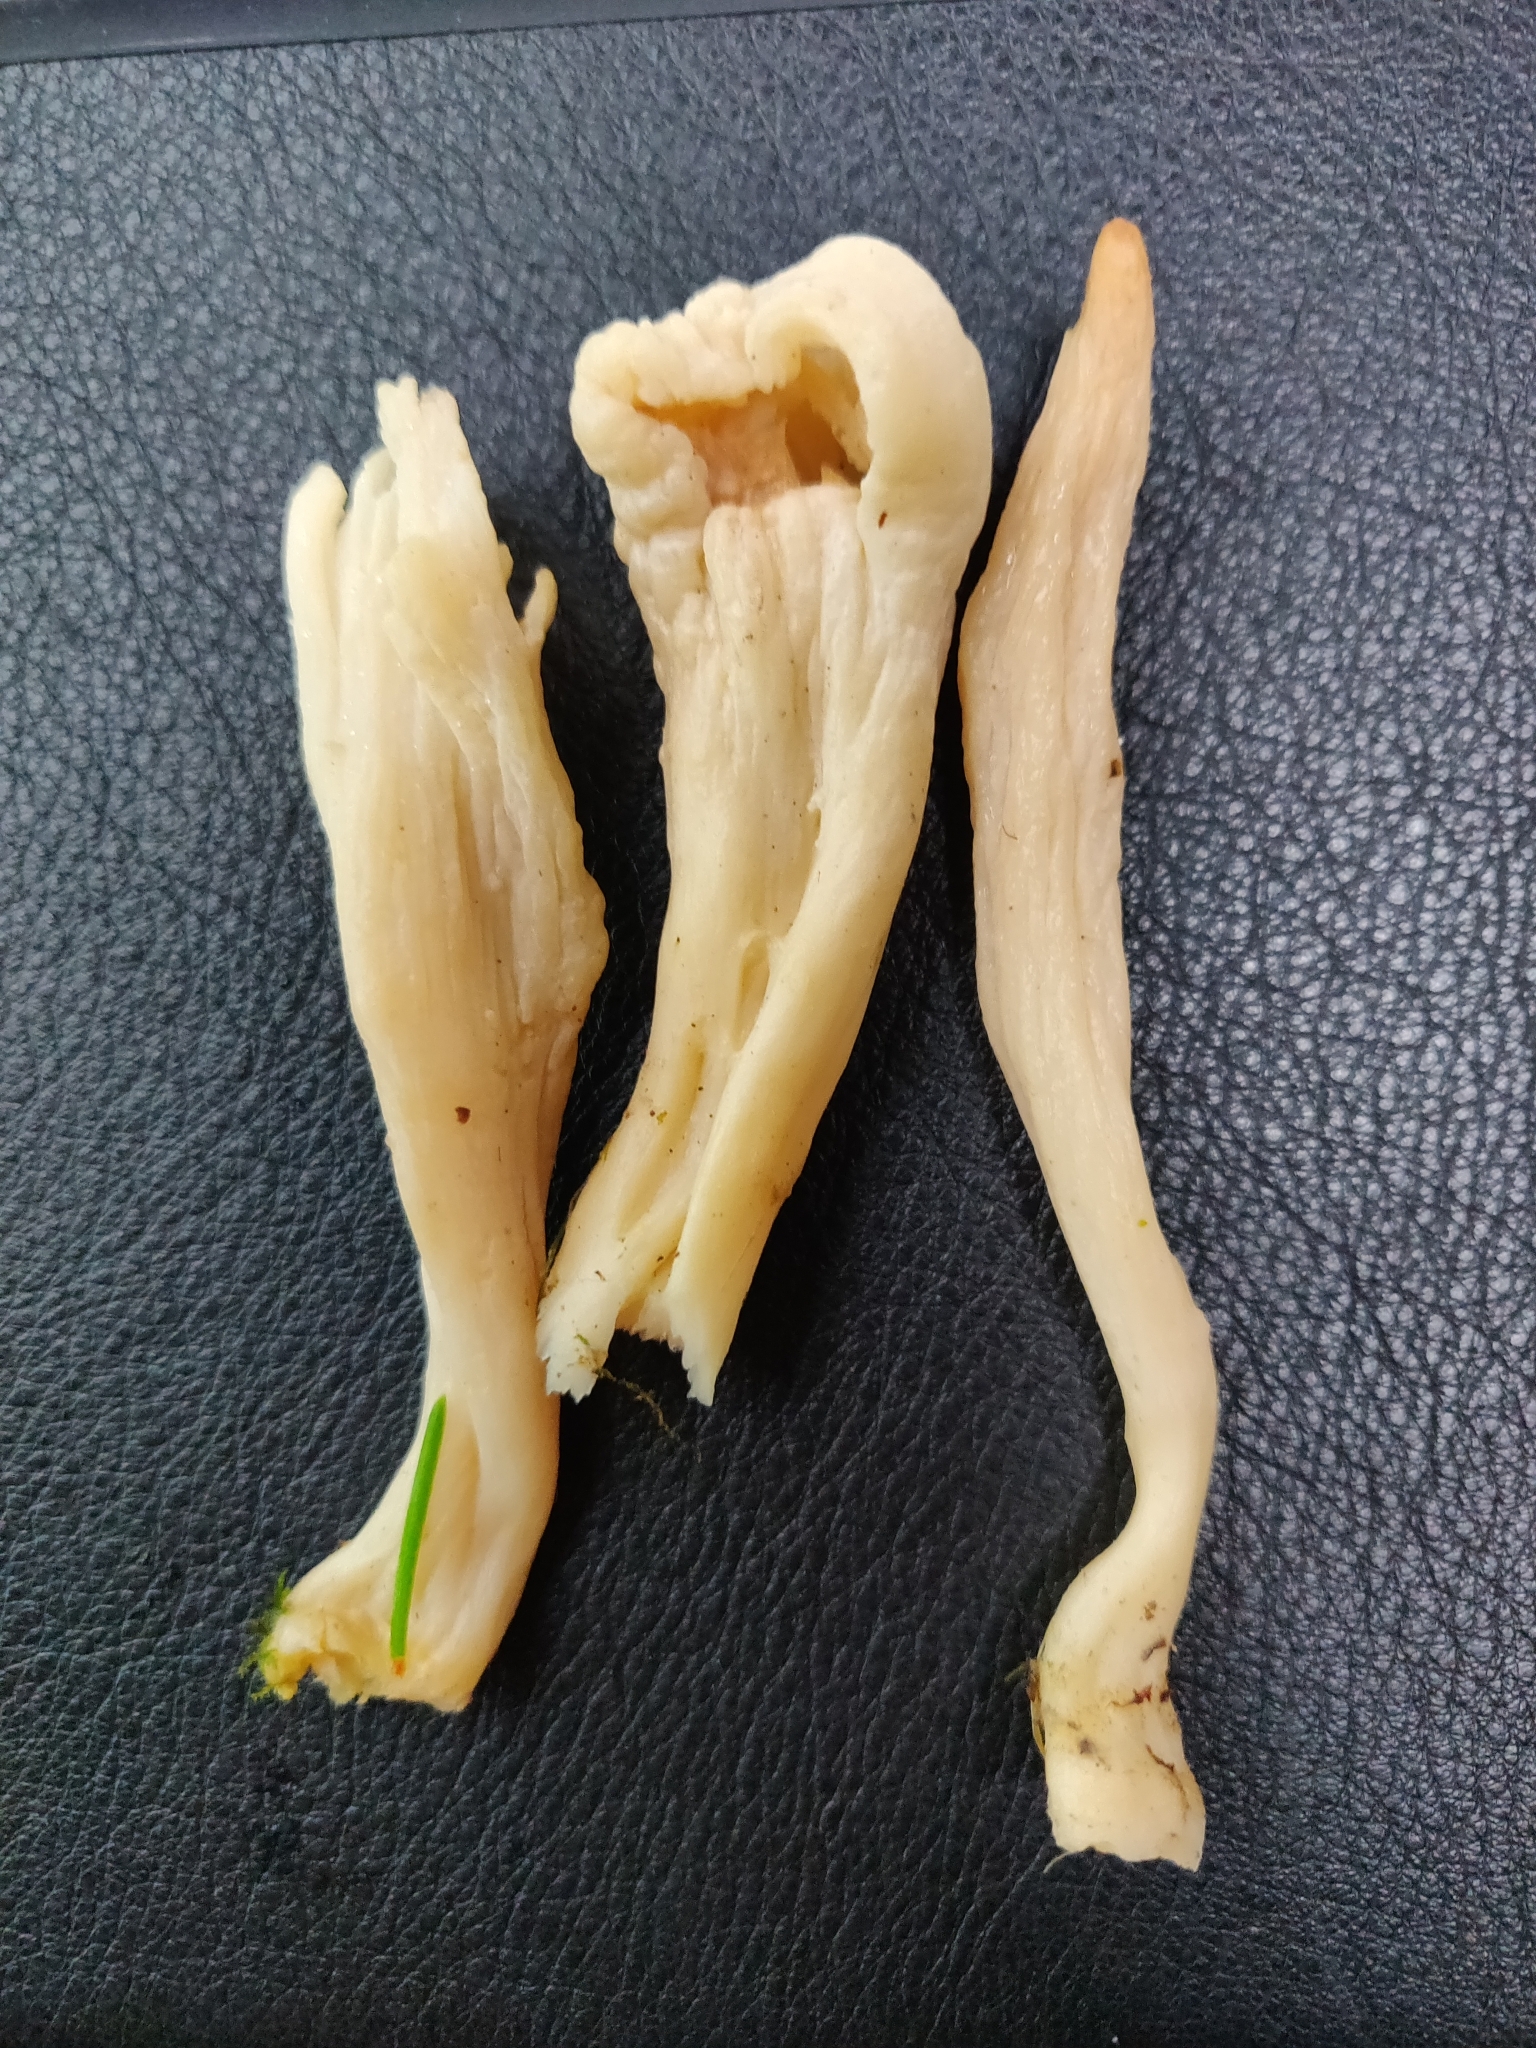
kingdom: Fungi
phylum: Basidiomycota
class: Agaricomycetes
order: Cantharellales
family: Hydnaceae
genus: Clavulina
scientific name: Clavulina rugosa
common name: Wrinkled club
